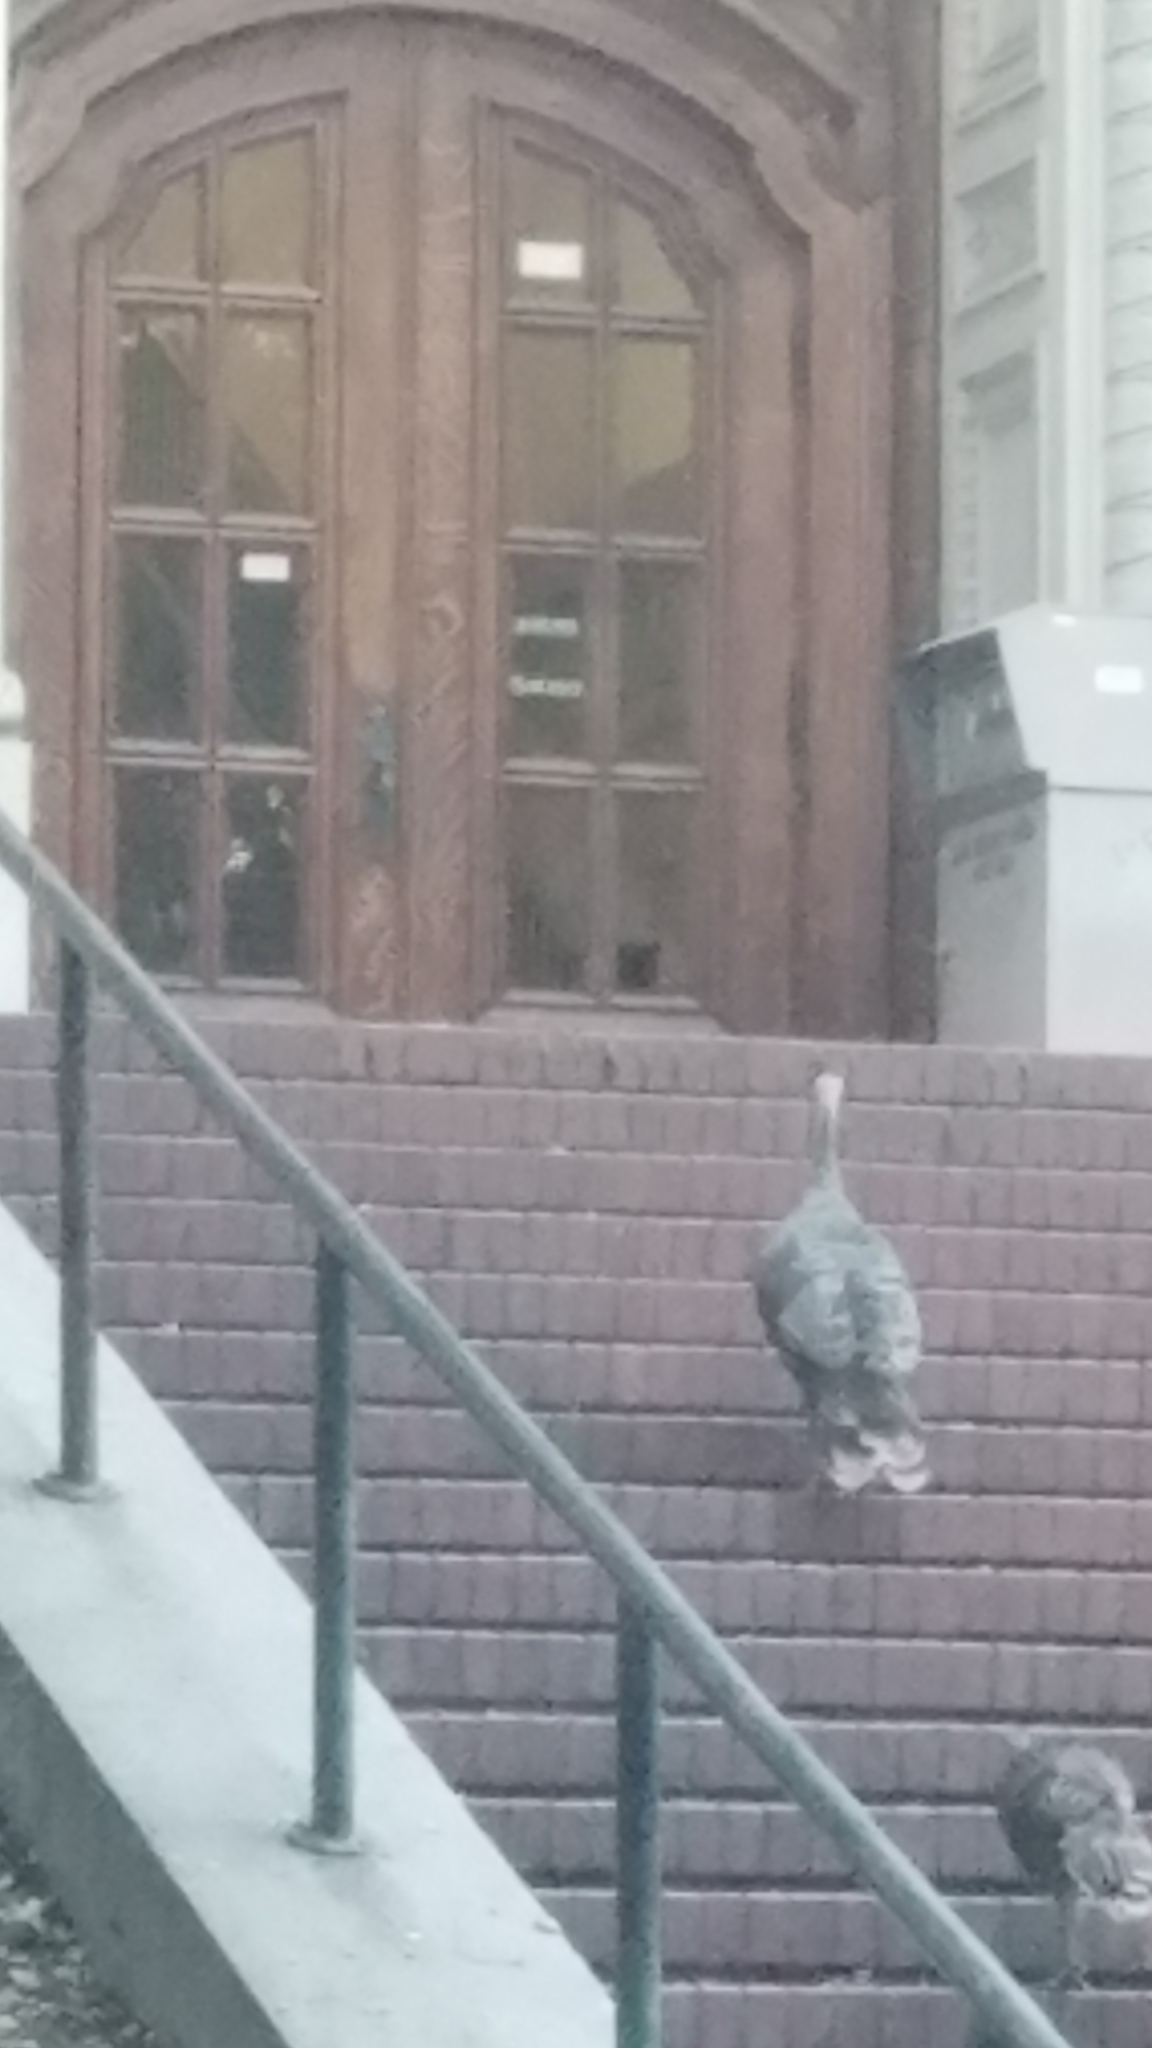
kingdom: Animalia
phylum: Chordata
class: Aves
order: Galliformes
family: Phasianidae
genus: Meleagris
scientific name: Meleagris gallopavo
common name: Wild turkey
